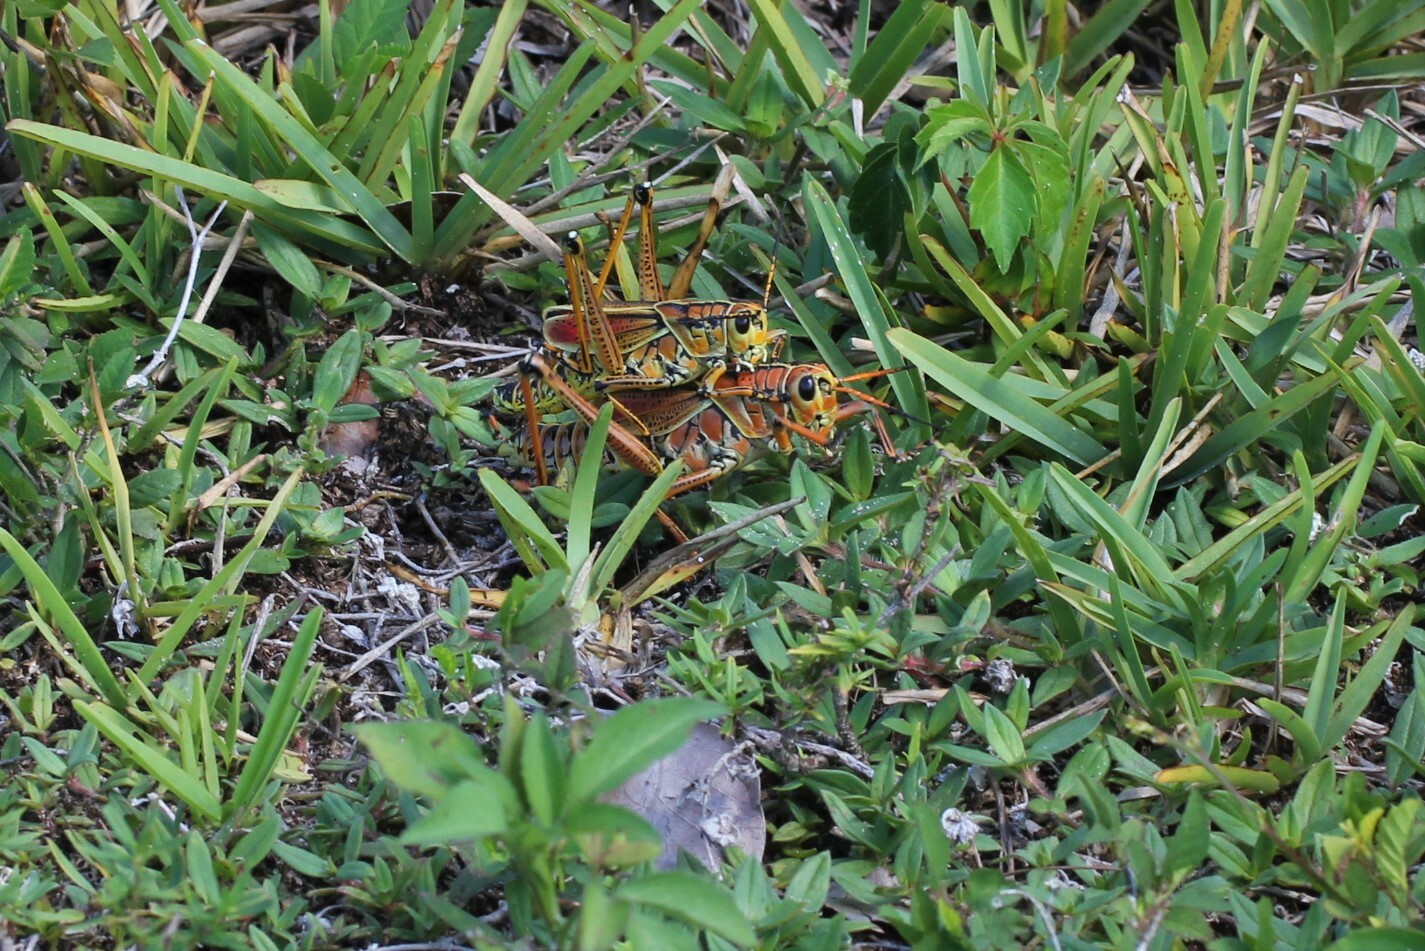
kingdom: Animalia
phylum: Arthropoda
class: Insecta
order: Orthoptera
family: Romaleidae
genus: Romalea
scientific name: Romalea microptera
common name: Eastern lubber grasshopper
